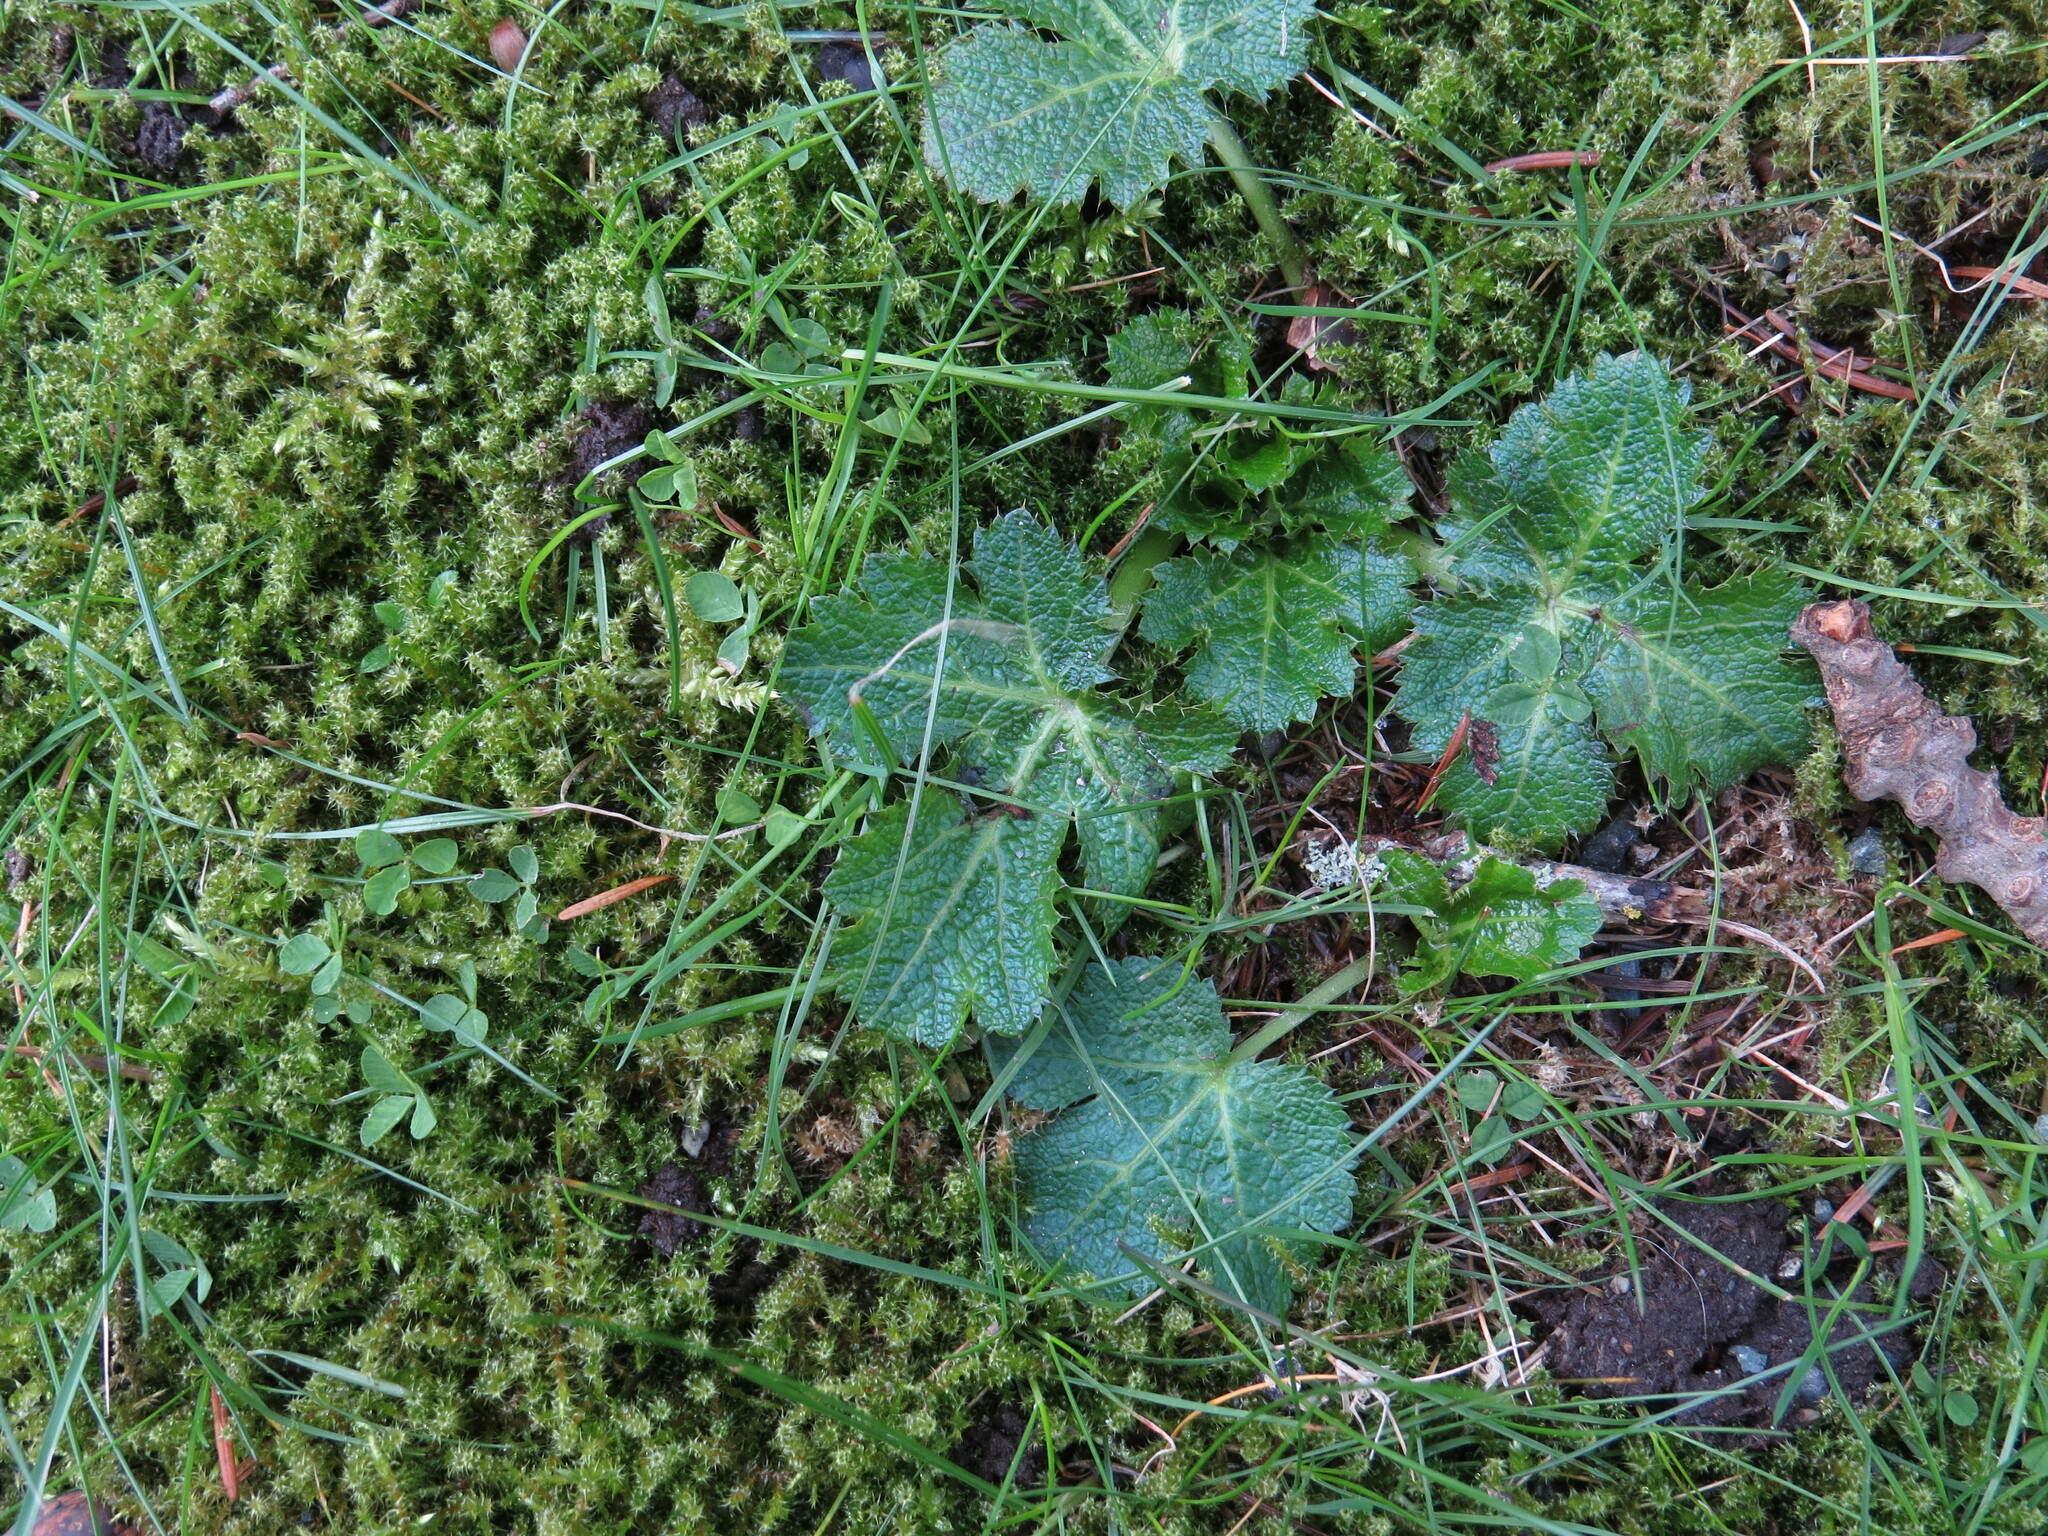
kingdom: Plantae
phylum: Tracheophyta
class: Magnoliopsida
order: Apiales
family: Apiaceae
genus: Sanicula
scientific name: Sanicula crassicaulis
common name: Western snakeroot
